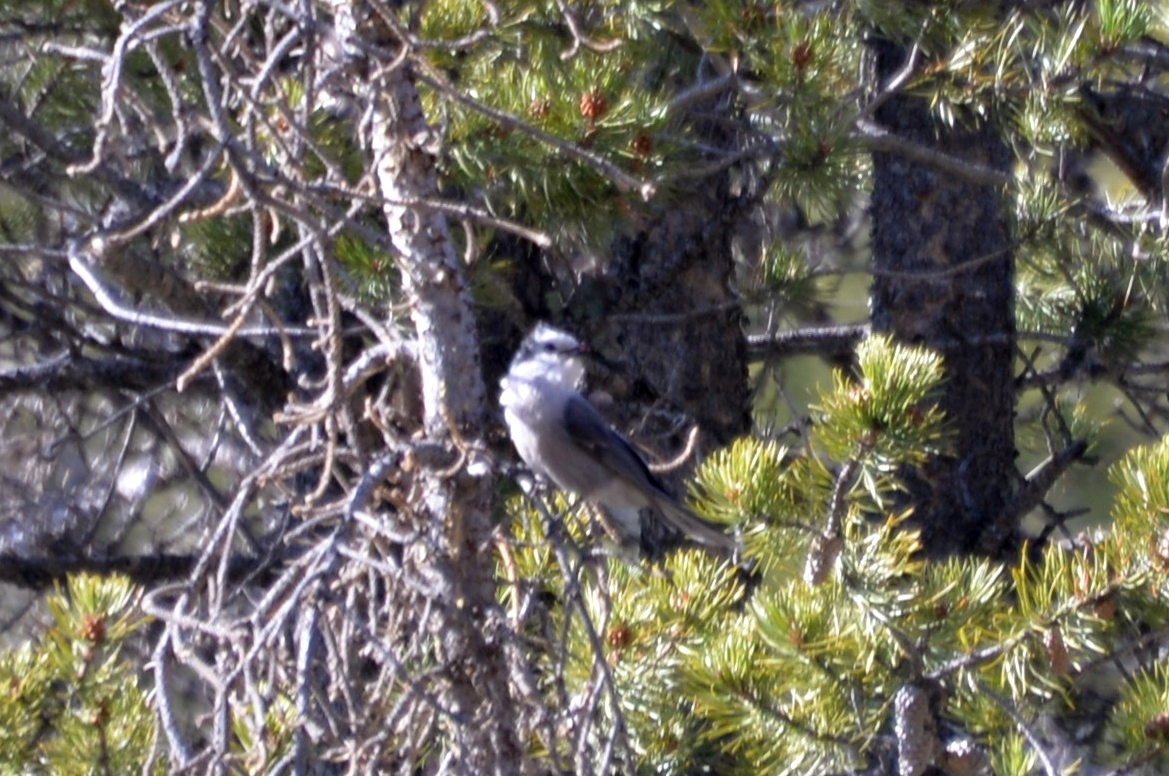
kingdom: Animalia
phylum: Chordata
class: Aves
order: Passeriformes
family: Corvidae
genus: Perisoreus
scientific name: Perisoreus canadensis
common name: Gray jay
